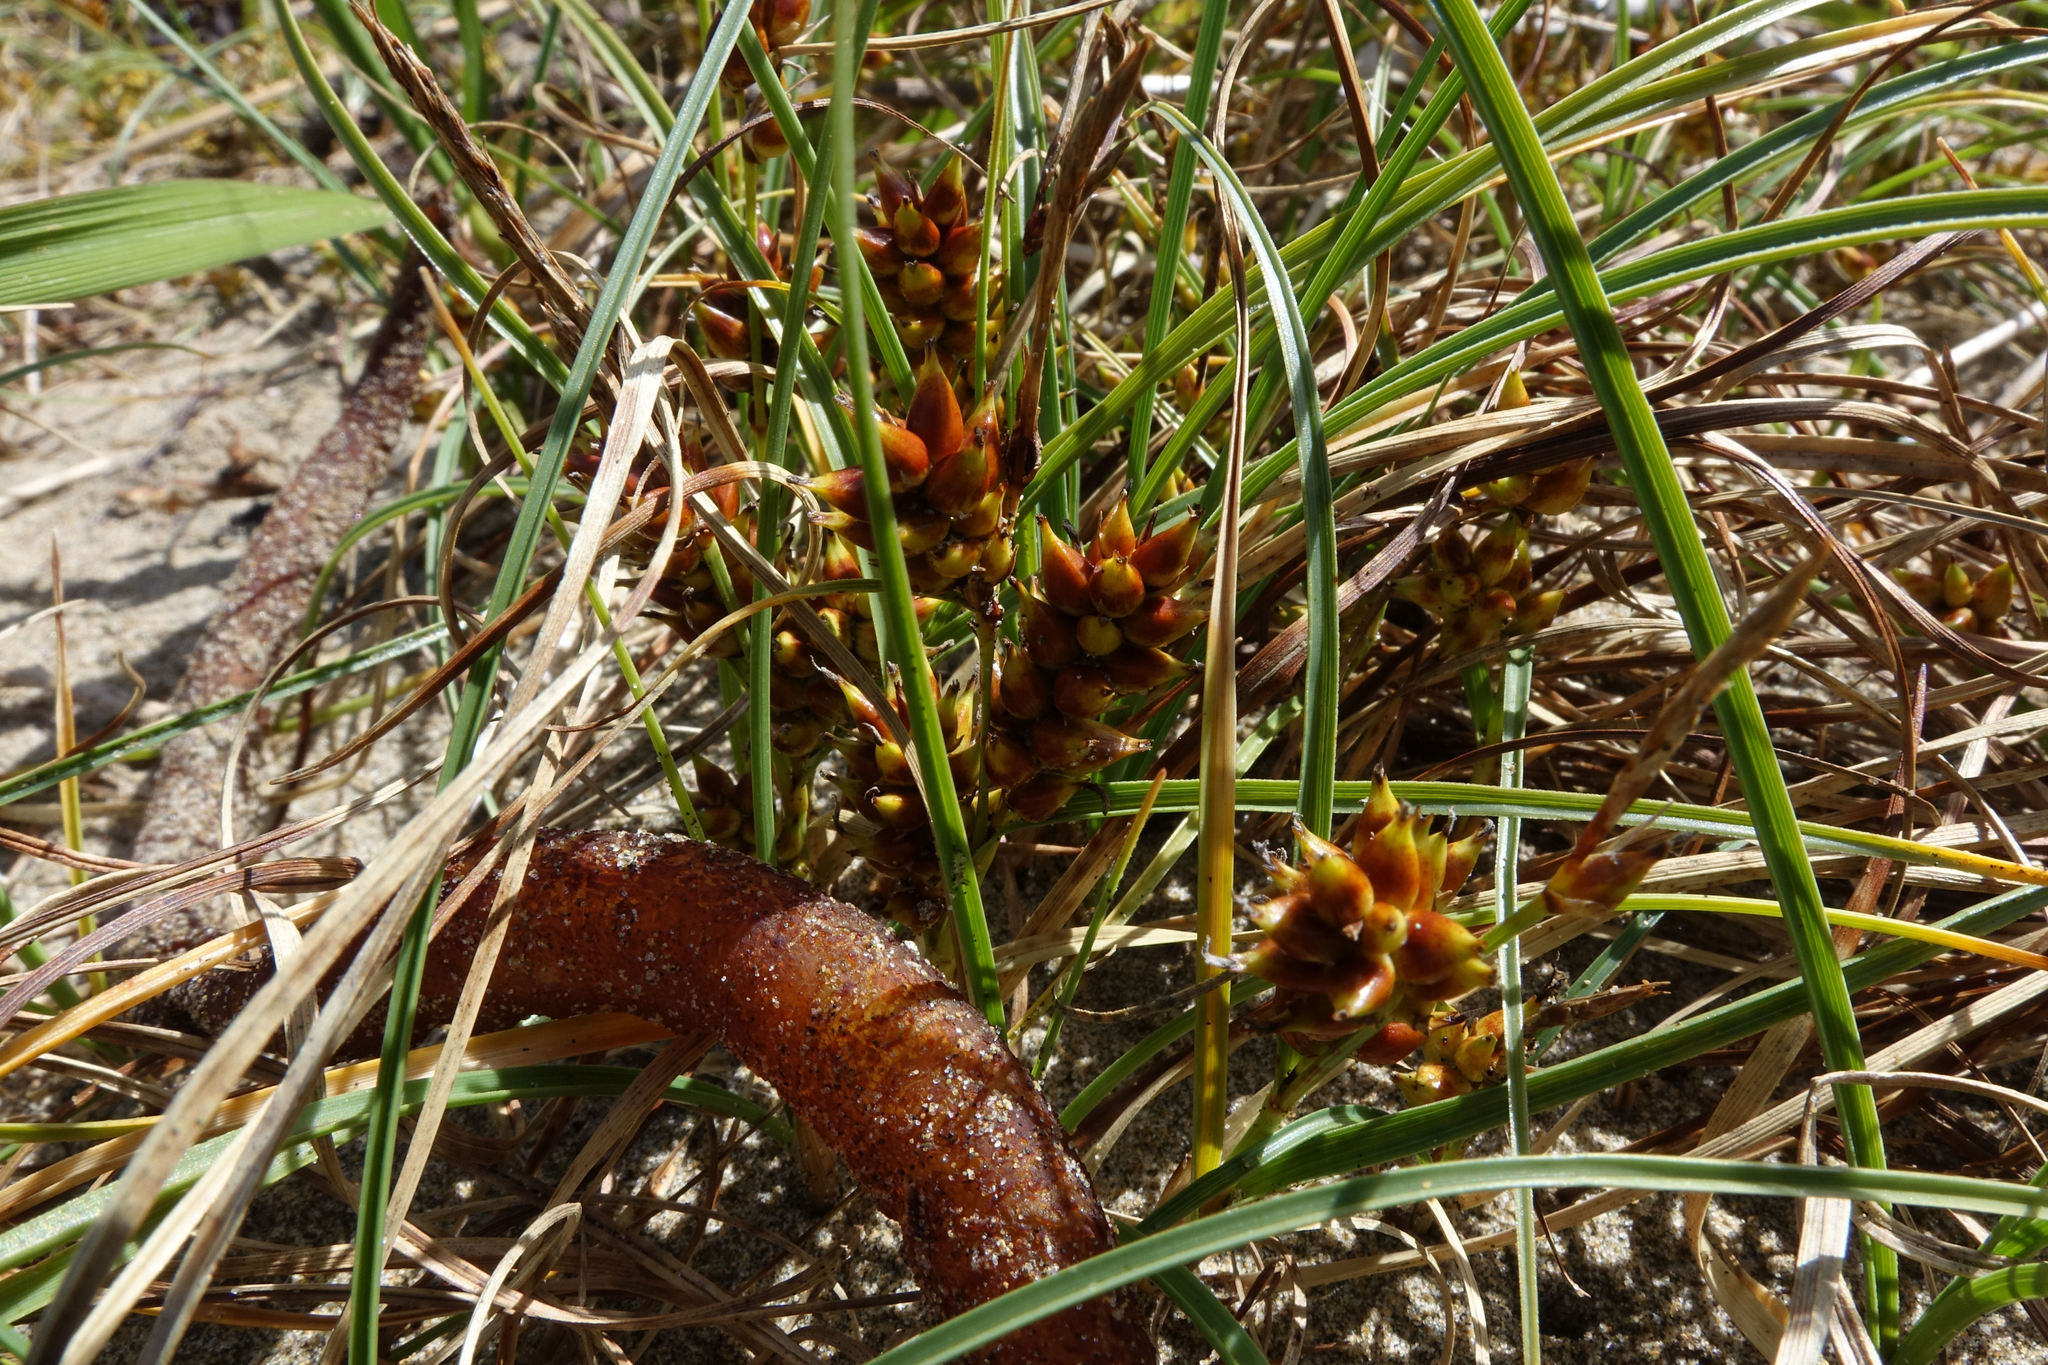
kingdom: Plantae
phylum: Tracheophyta
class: Liliopsida
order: Poales
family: Cyperaceae
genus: Carex
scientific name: Carex pumila
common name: Dwarf sedge
